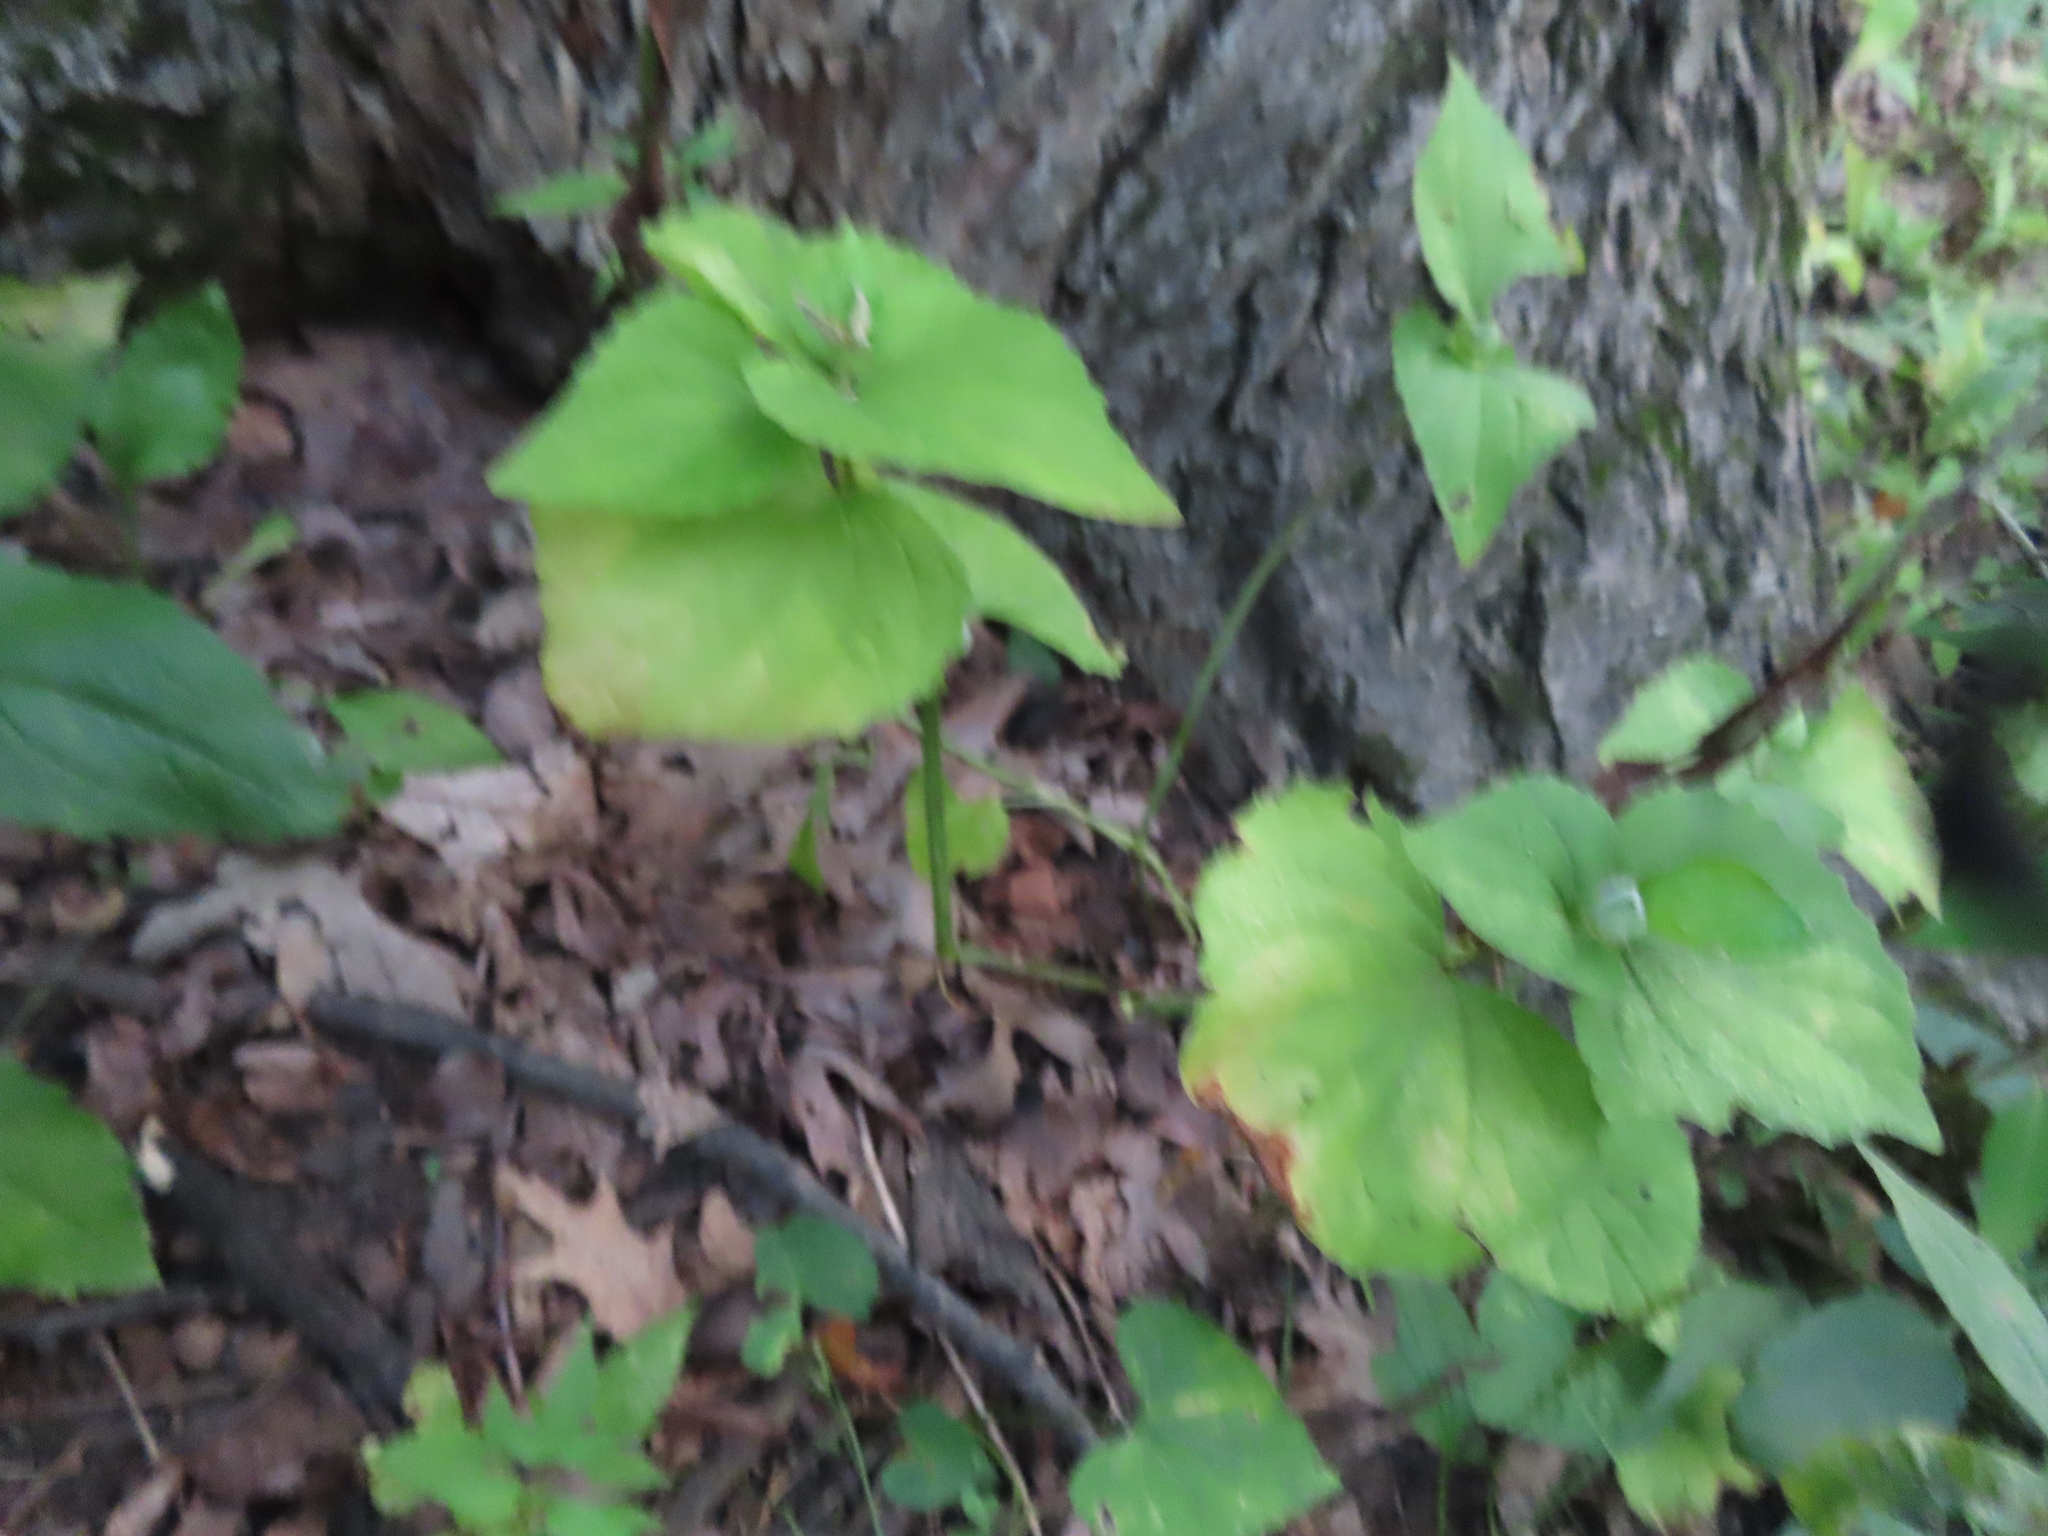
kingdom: Plantae
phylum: Tracheophyta
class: Magnoliopsida
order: Malpighiales
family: Violaceae
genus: Viola
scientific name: Viola eriocarpa
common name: Smooth yellow violet
